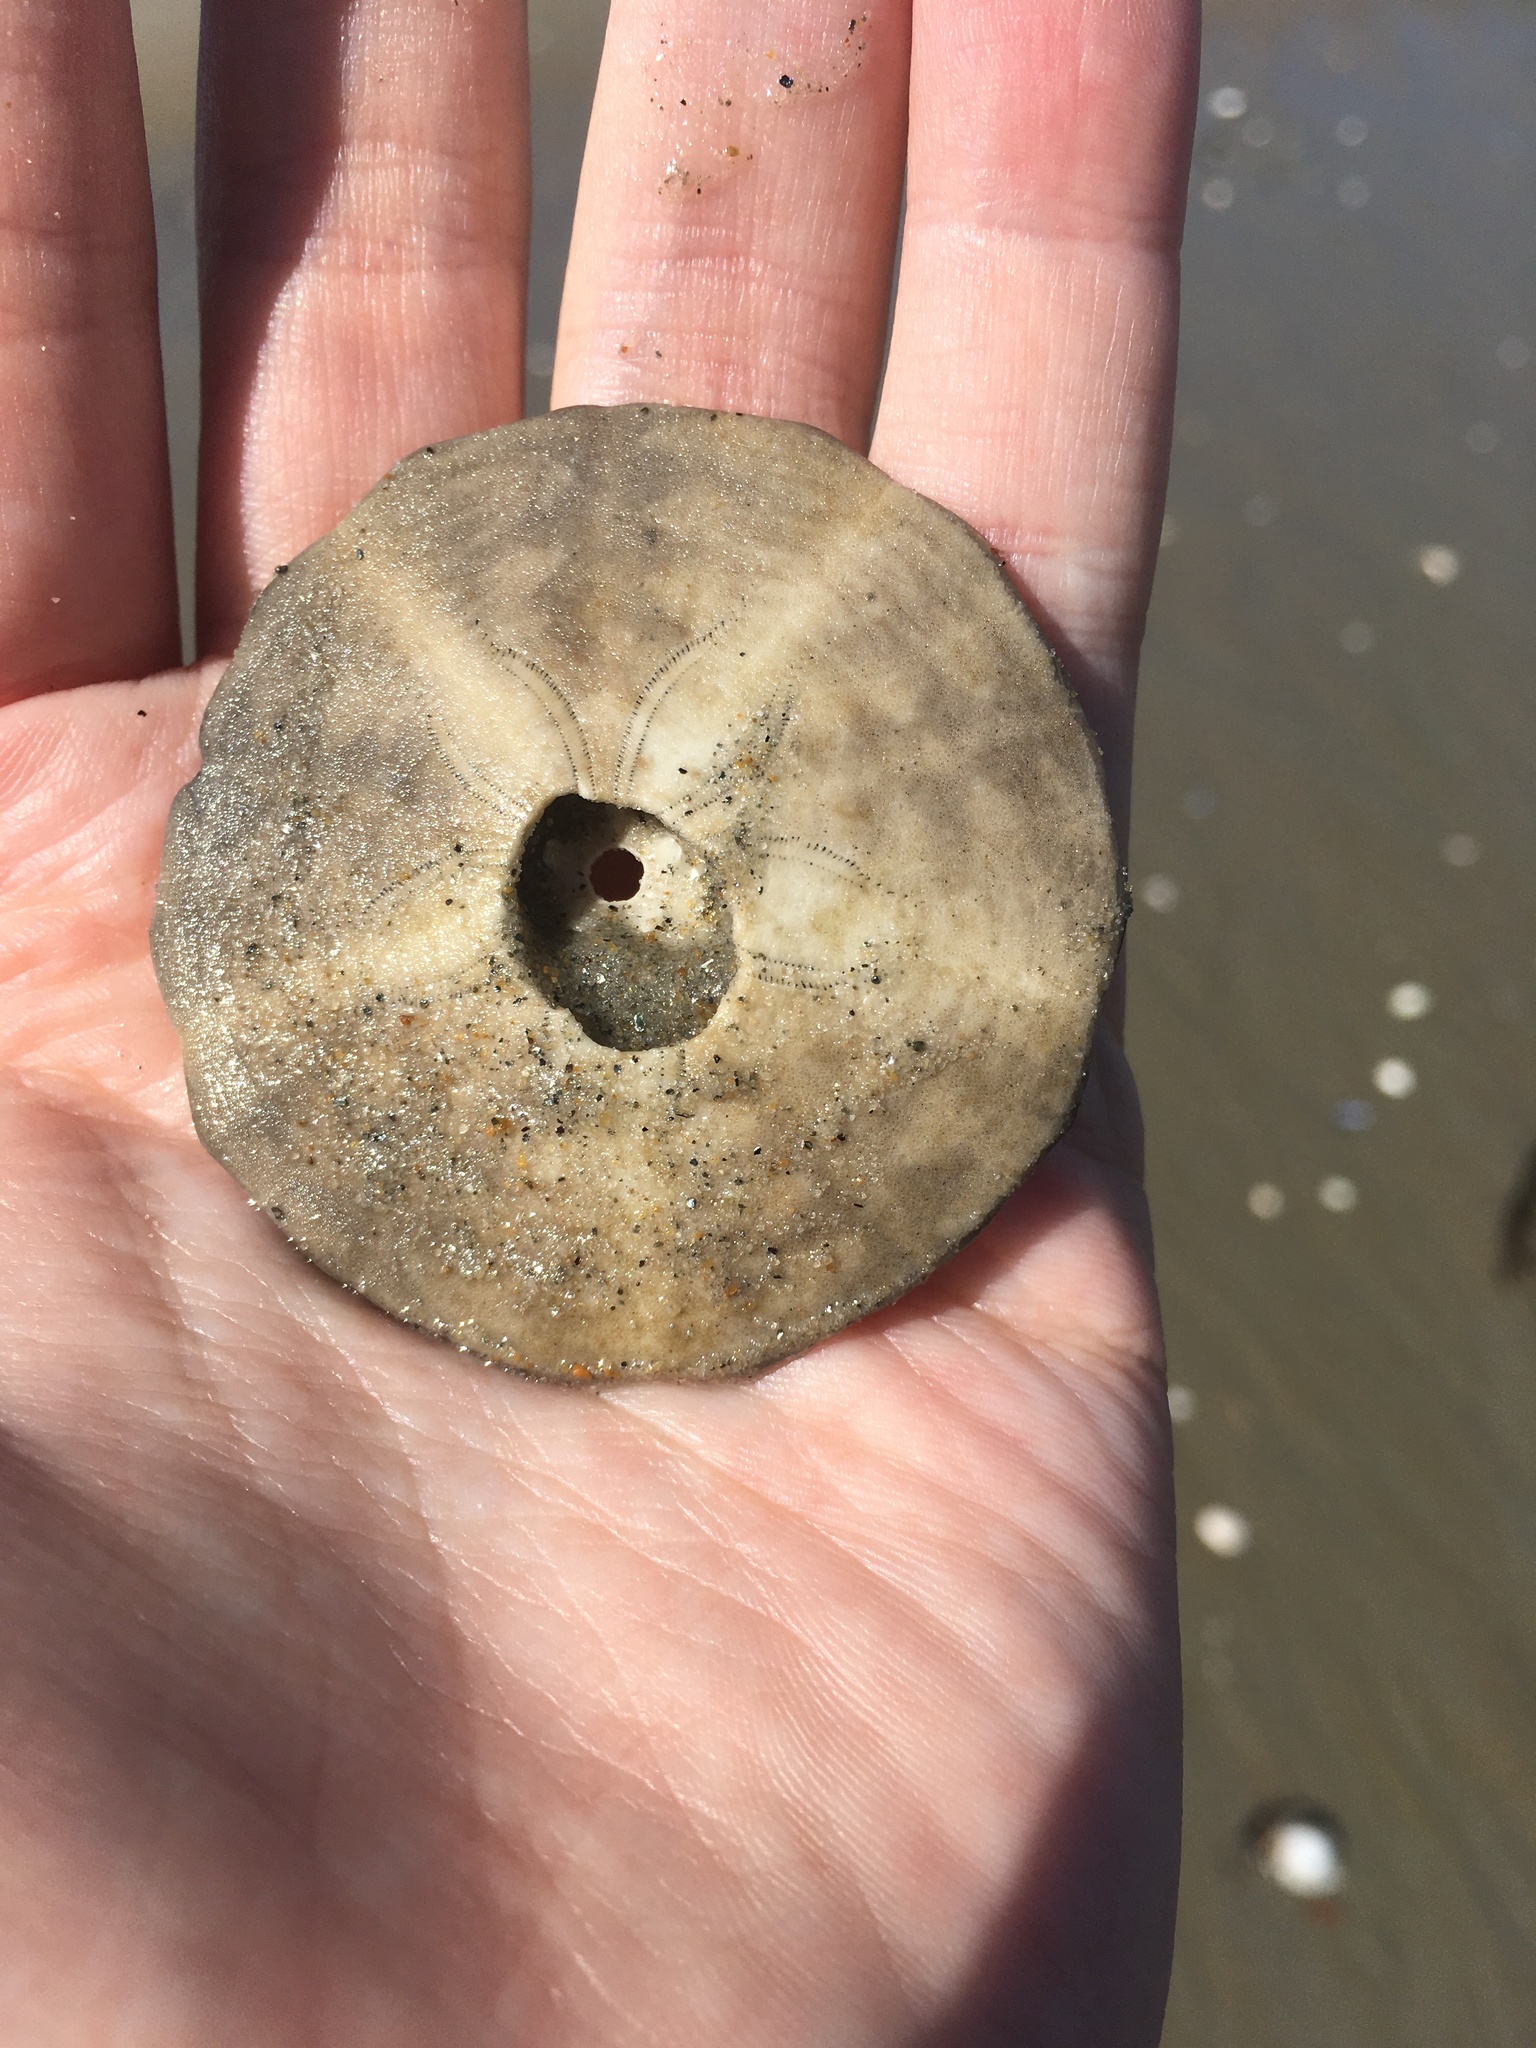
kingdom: Animalia
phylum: Echinodermata
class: Echinoidea
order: Echinolampadacea
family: Echinarachniidae
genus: Echinarachnius
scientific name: Echinarachnius parma
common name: Common sand dollar
